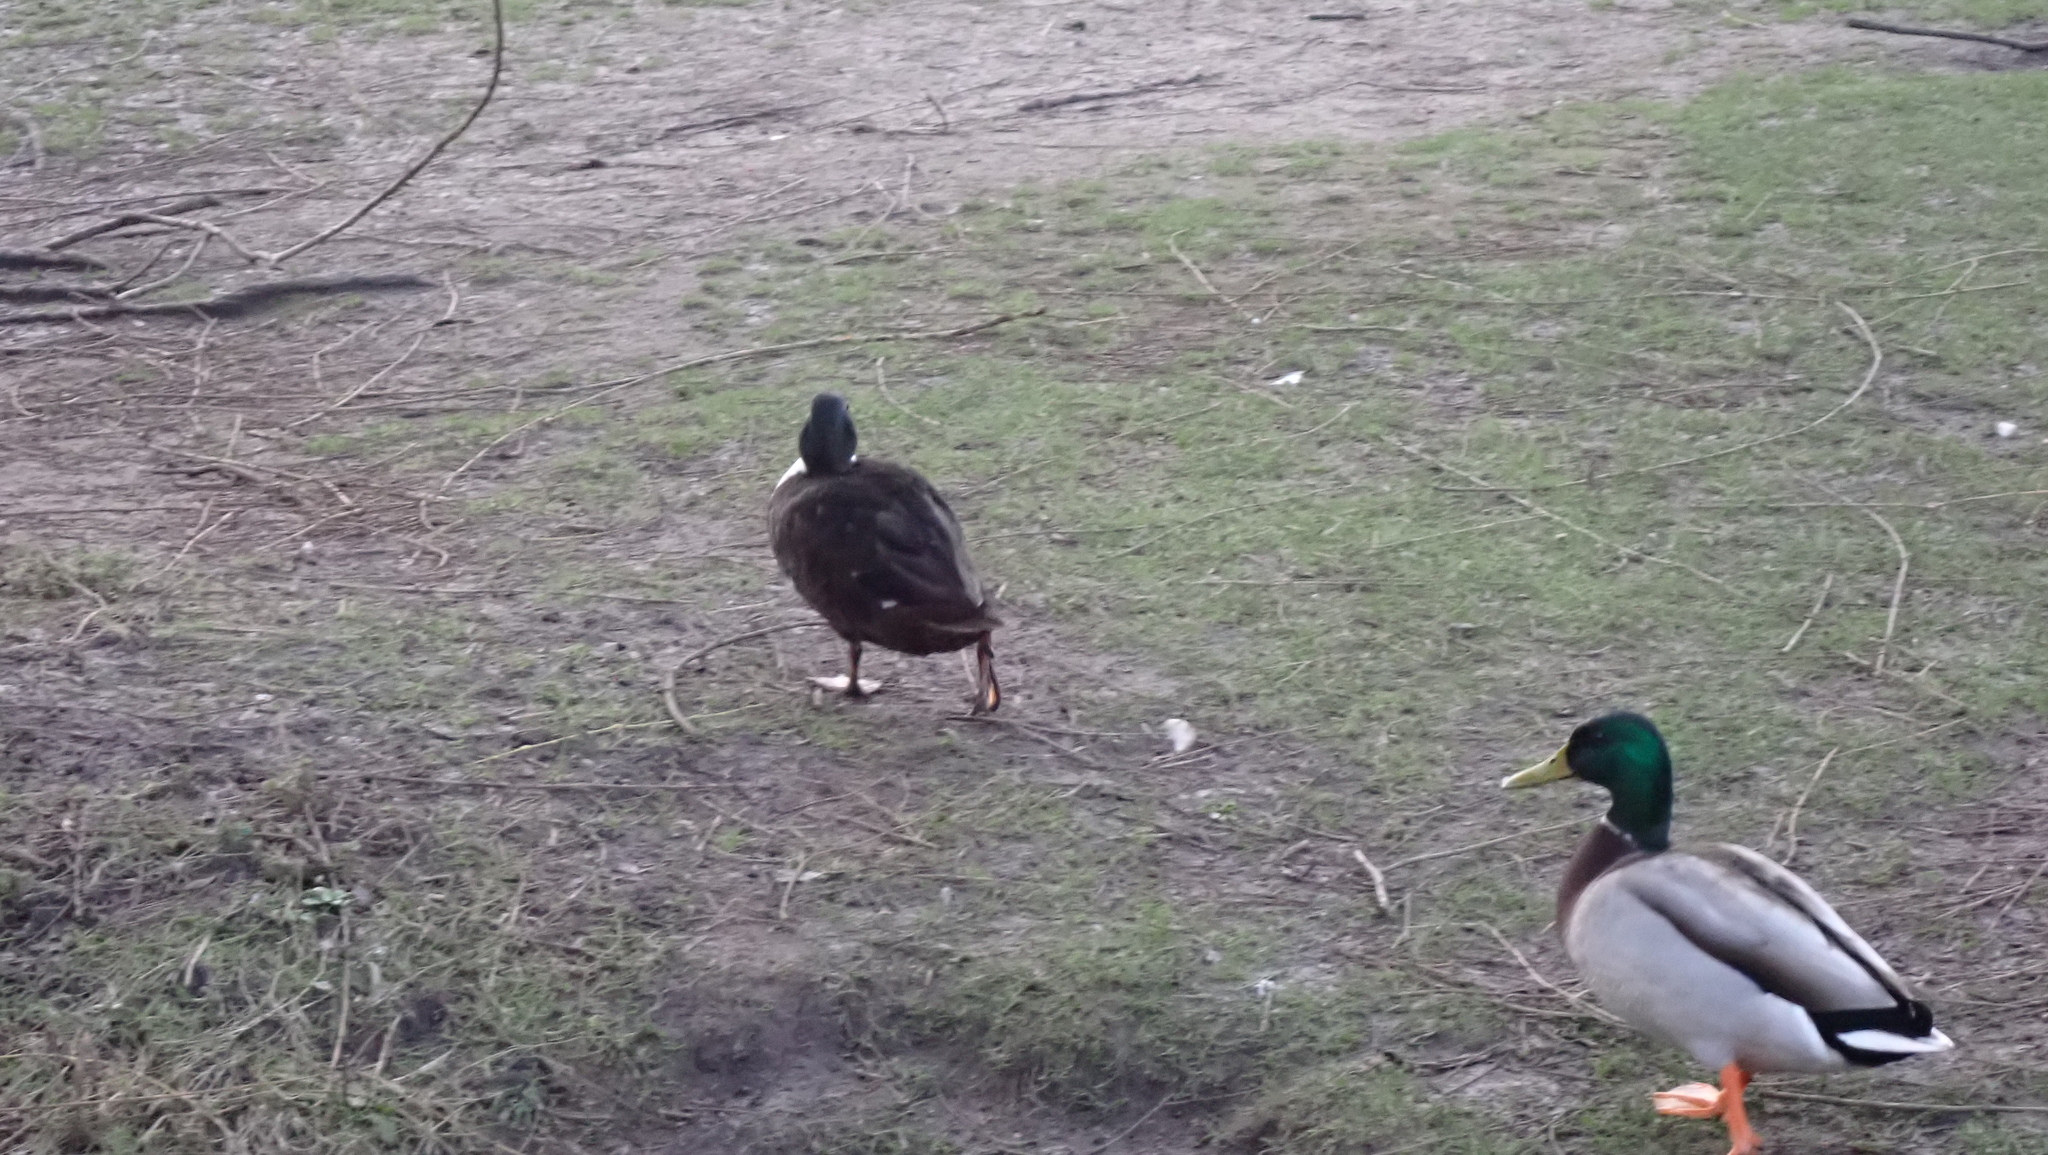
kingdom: Animalia
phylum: Chordata
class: Aves
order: Anseriformes
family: Anatidae
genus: Anas
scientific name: Anas platyrhynchos
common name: Mallard
